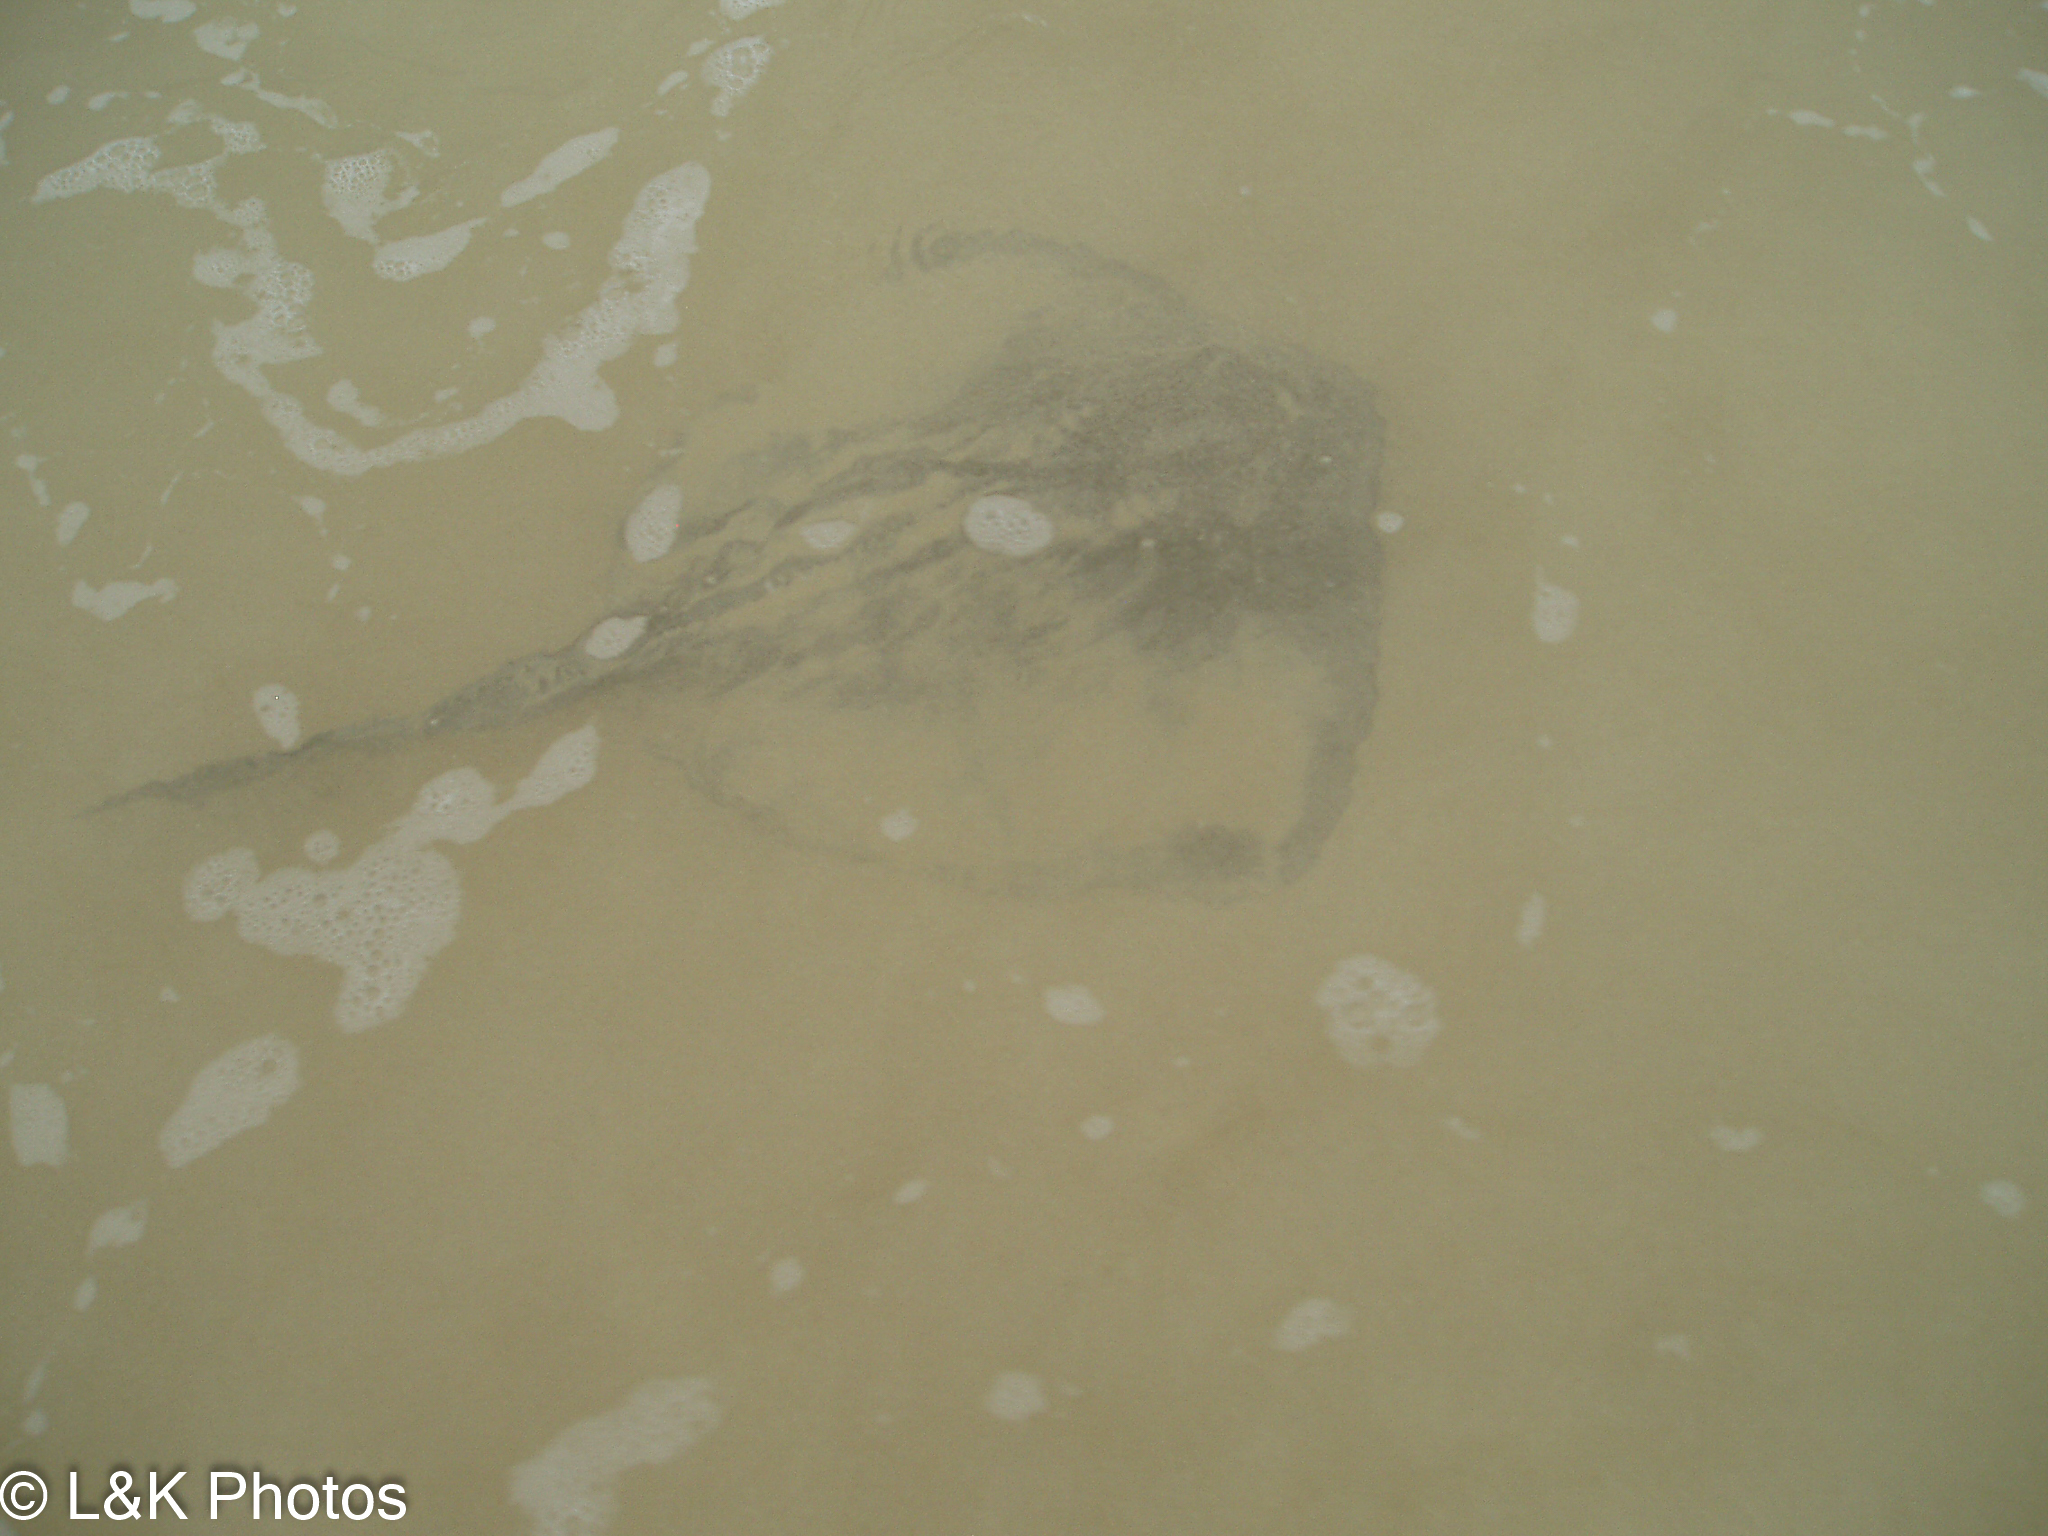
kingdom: Animalia
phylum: Chordata
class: Elasmobranchii
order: Myliobatiformes
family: Dasyatidae
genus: Hypanus
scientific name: Hypanus dipterurus
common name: Diamond stingray
